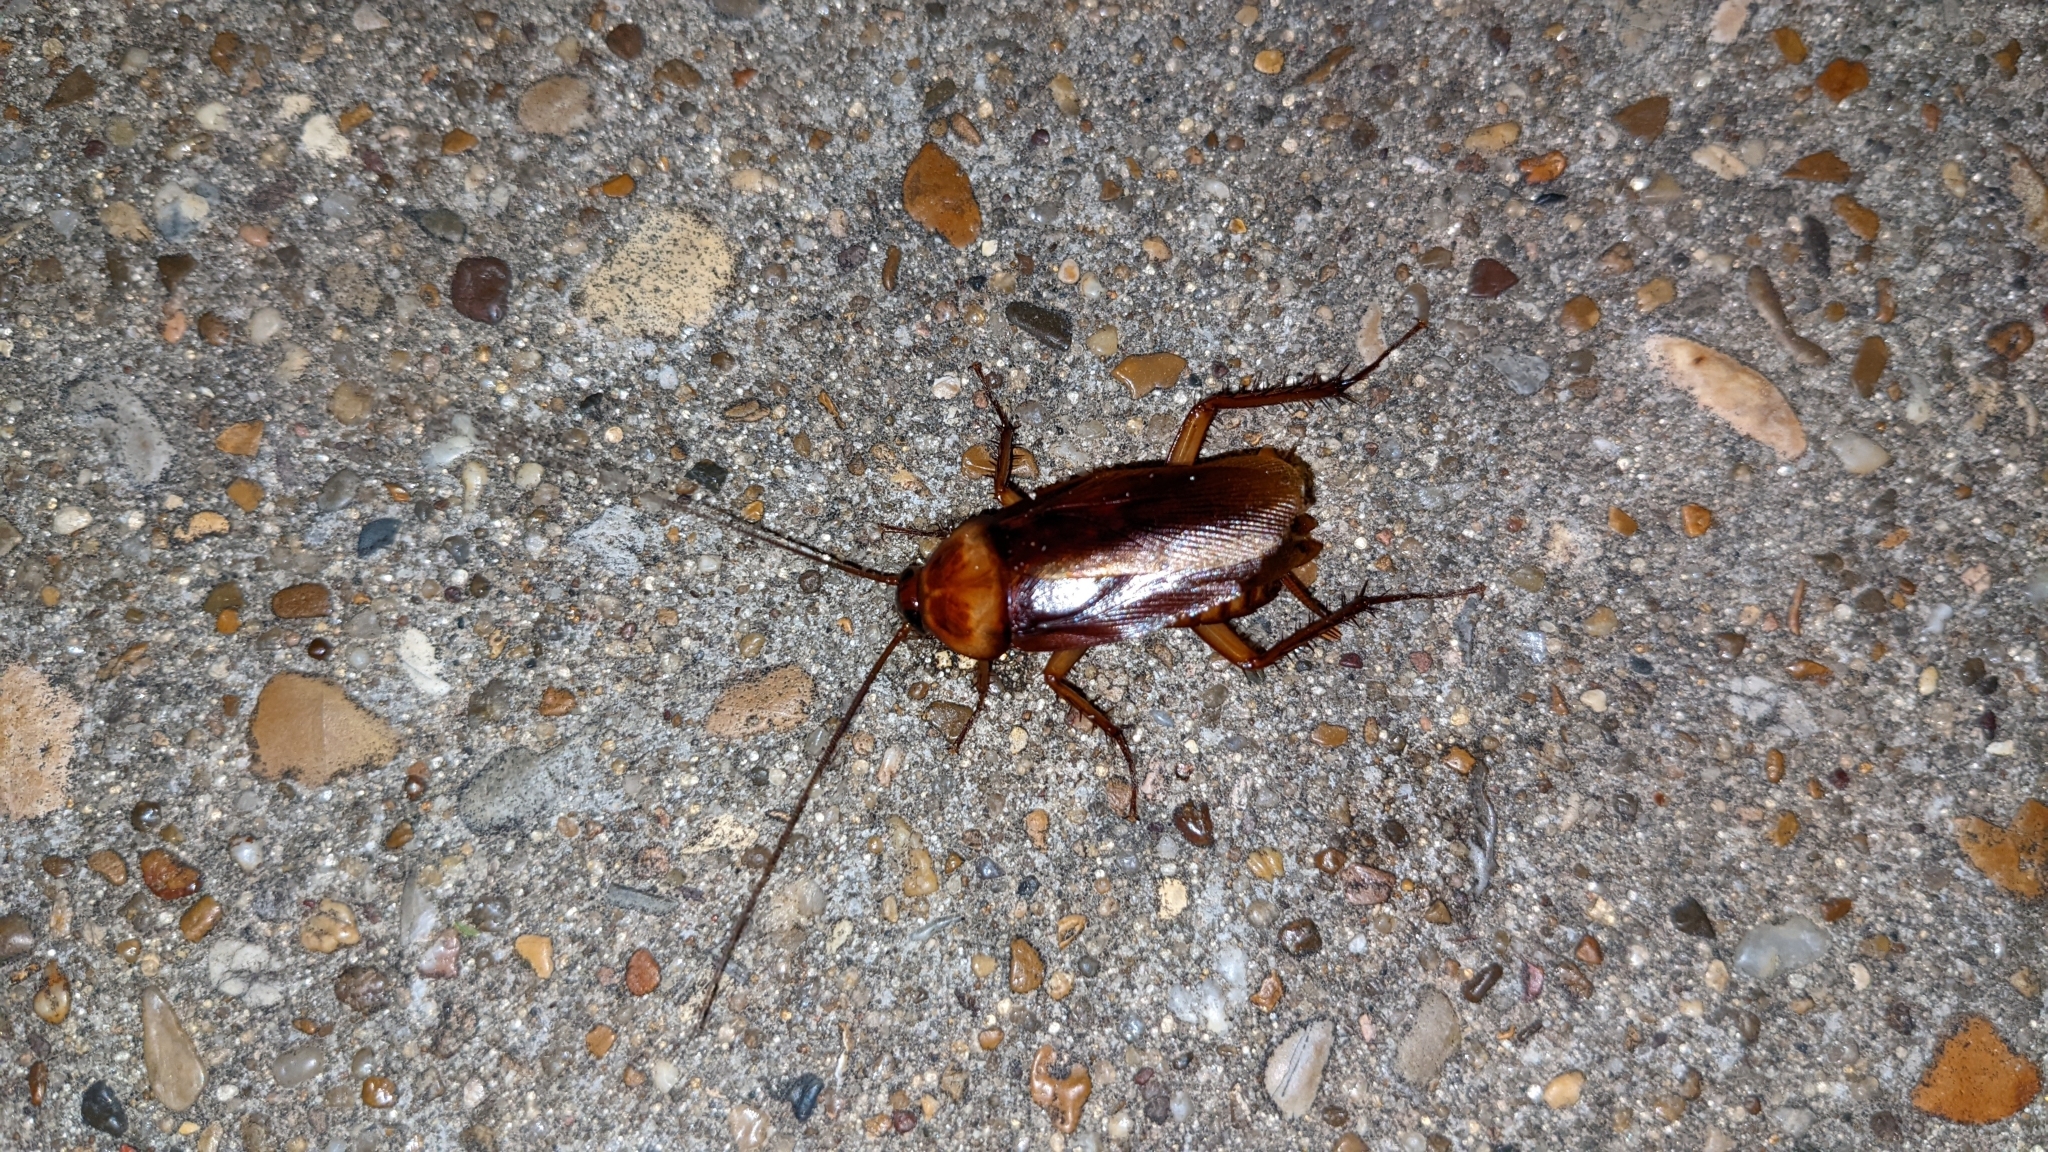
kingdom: Animalia
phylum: Arthropoda
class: Insecta
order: Blattodea
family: Blattidae
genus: Periplaneta
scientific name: Periplaneta americana
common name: American cockroach
